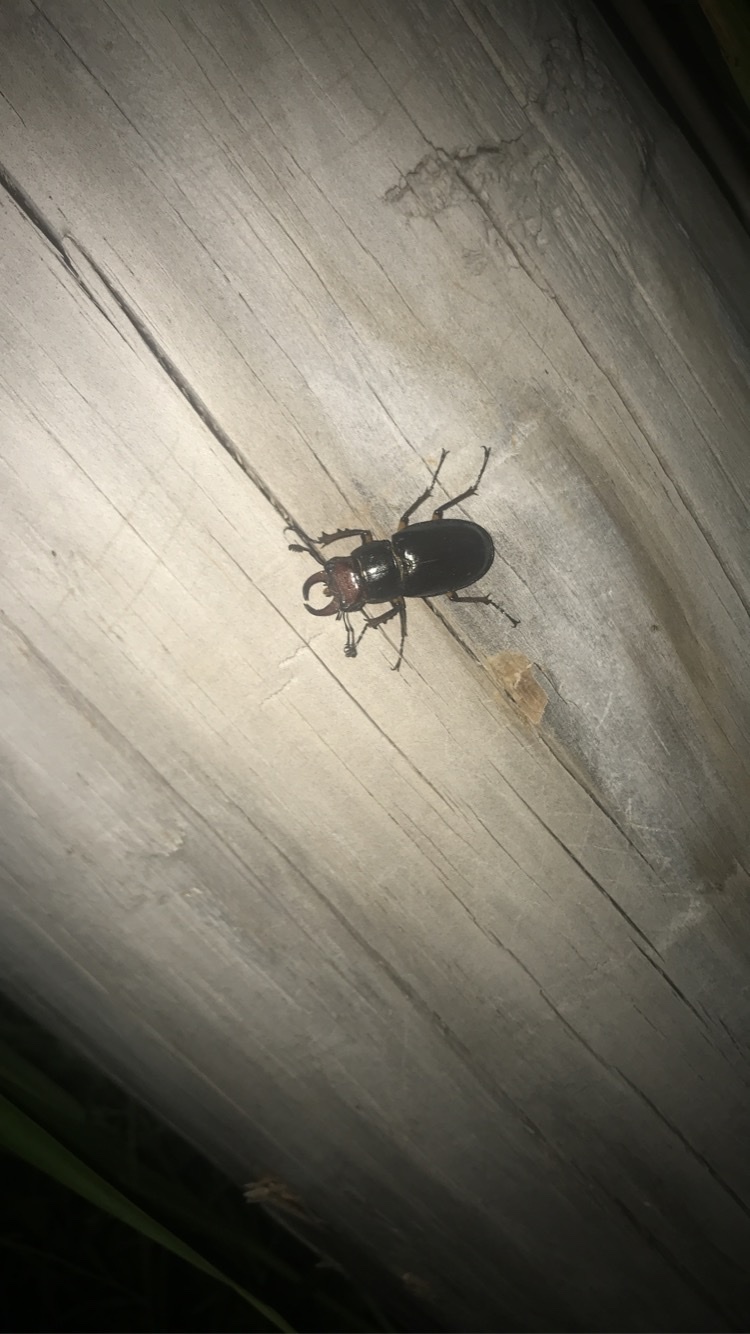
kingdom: Animalia
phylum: Arthropoda
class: Insecta
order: Coleoptera
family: Lucanidae
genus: Lucanus
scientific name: Lucanus capreolus
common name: Stag beetle
